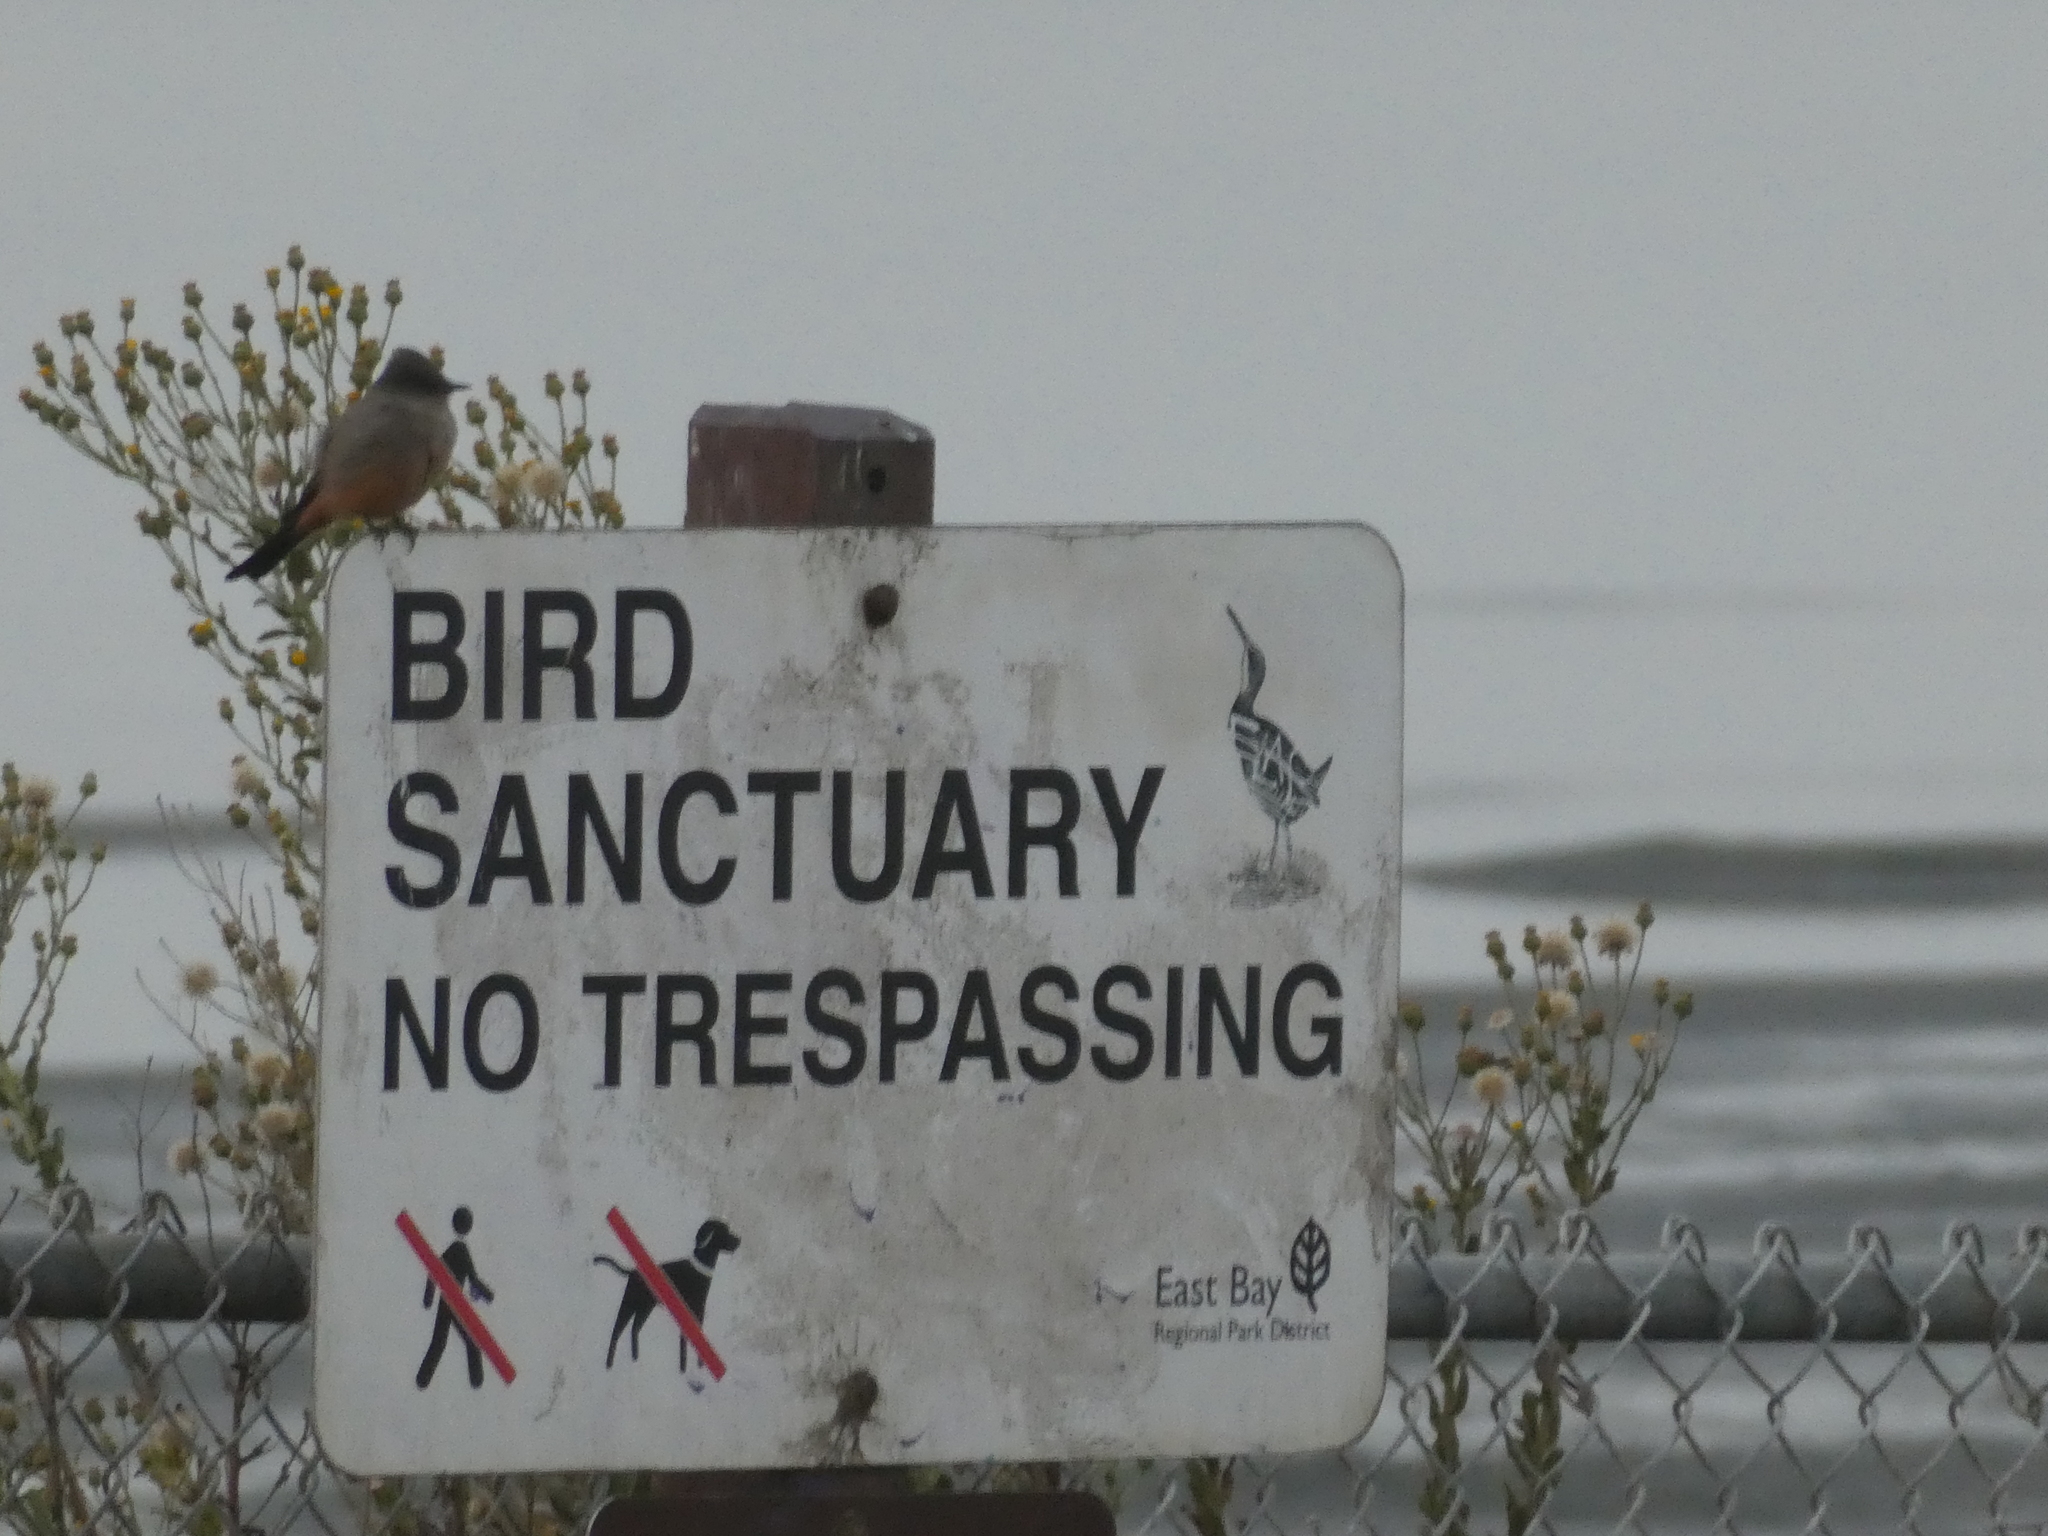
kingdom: Animalia
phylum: Chordata
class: Aves
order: Passeriformes
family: Tyrannidae
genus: Sayornis
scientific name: Sayornis saya
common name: Say's phoebe
